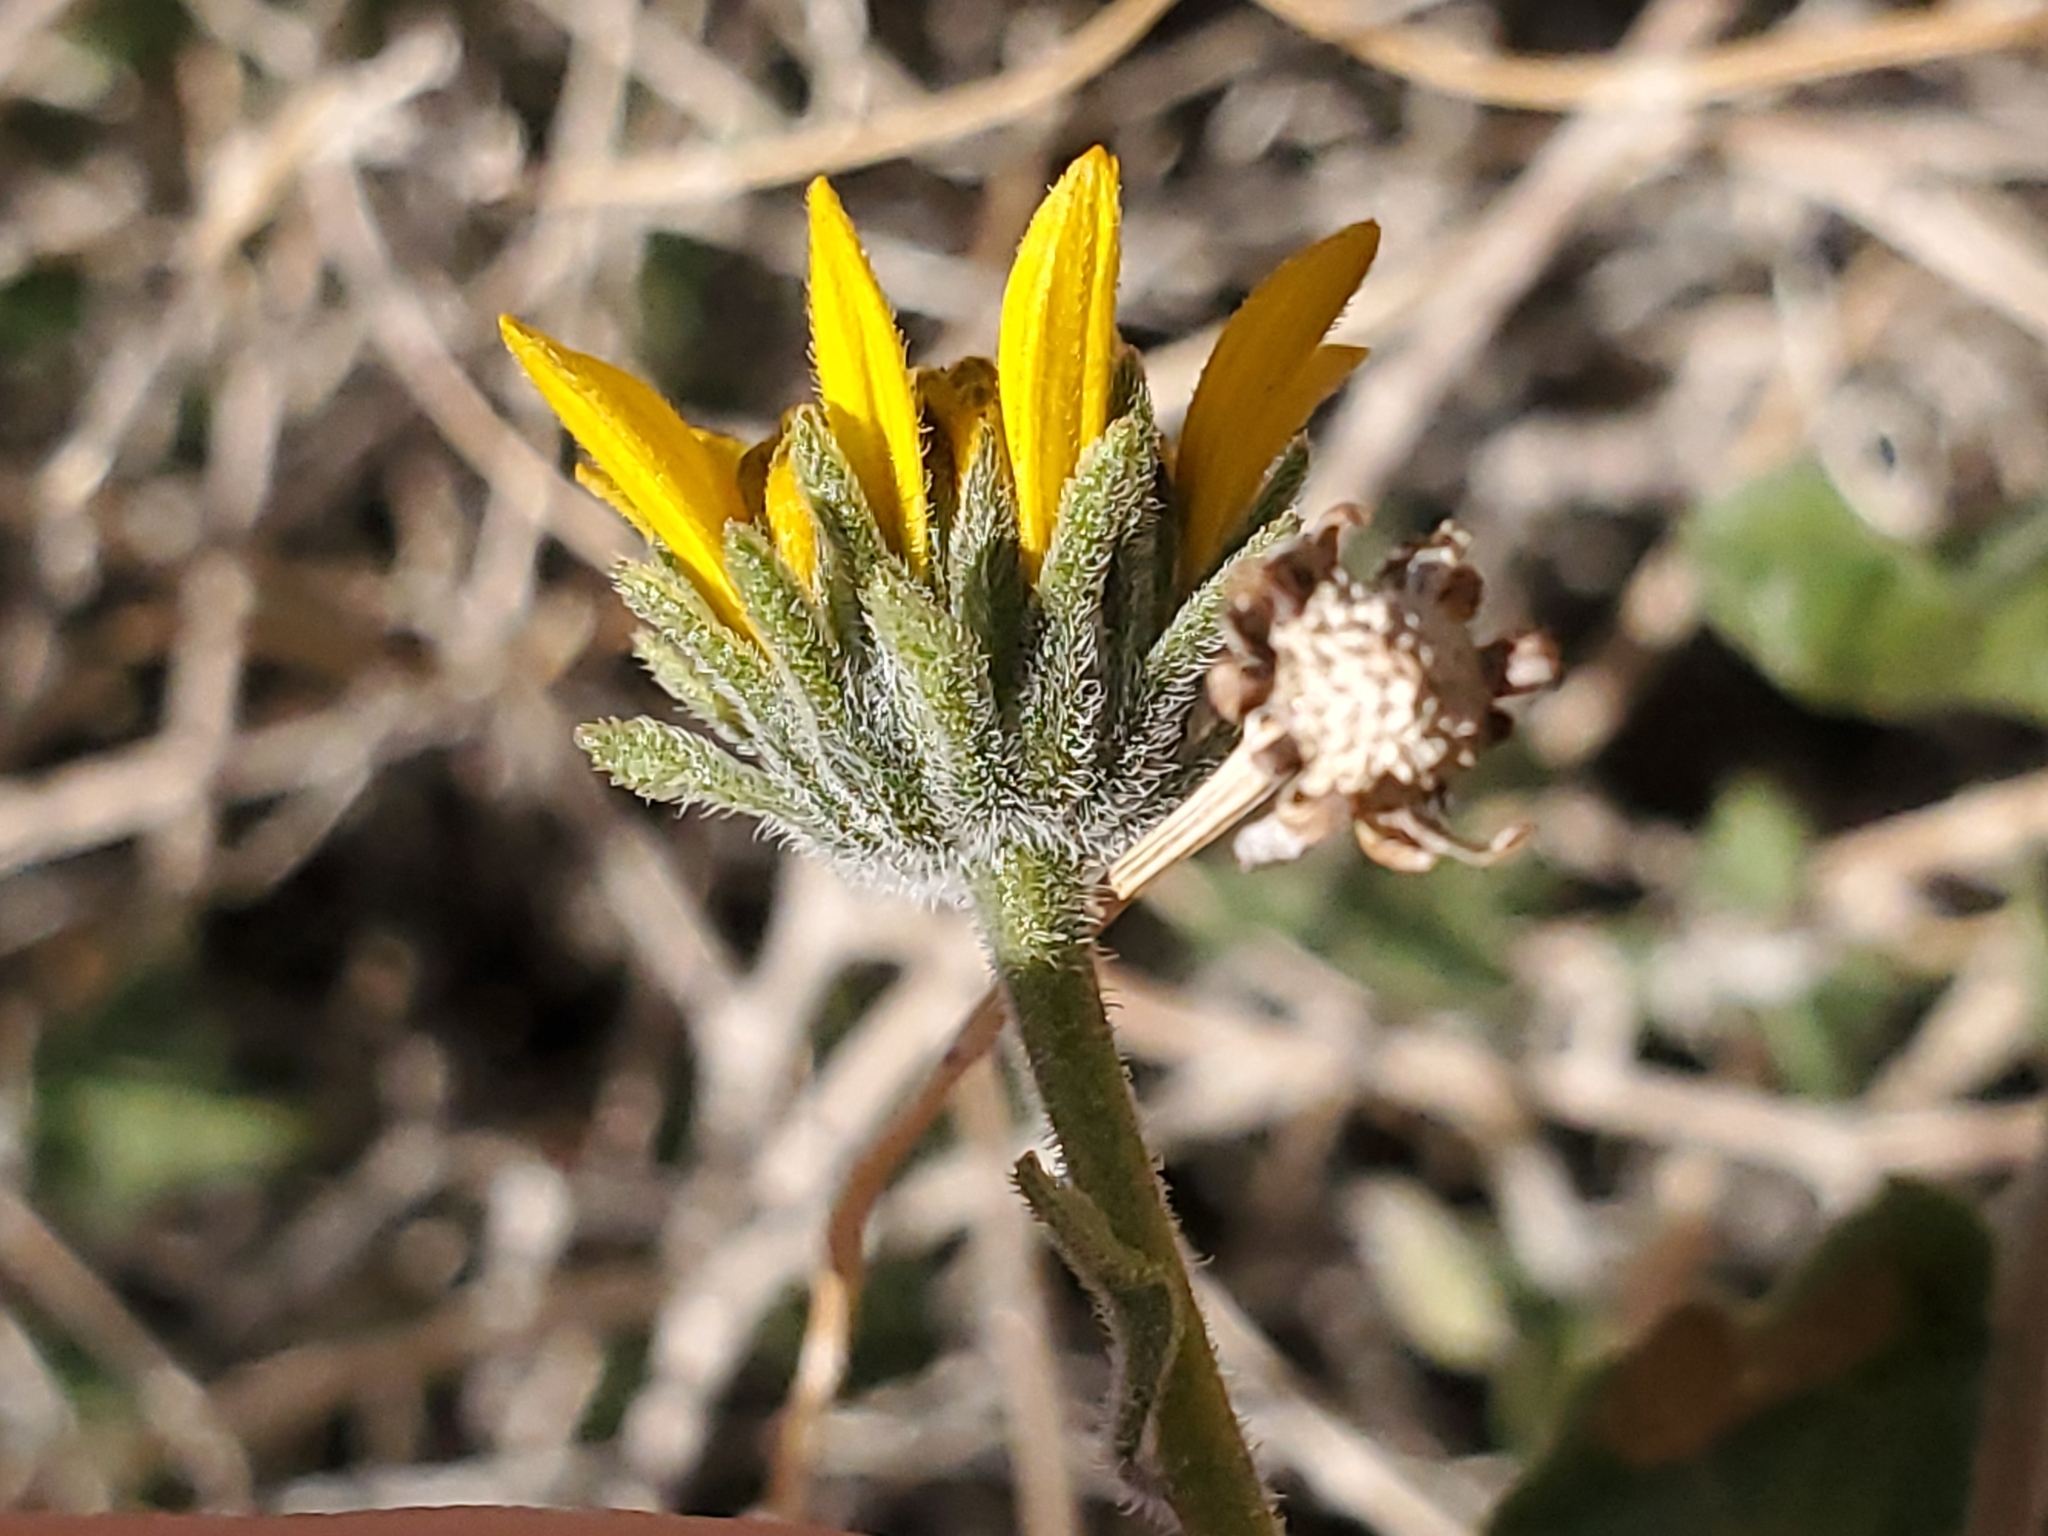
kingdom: Plantae
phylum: Tracheophyta
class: Magnoliopsida
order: Asterales
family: Asteraceae
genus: Bahiopsis
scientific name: Bahiopsis parishii
